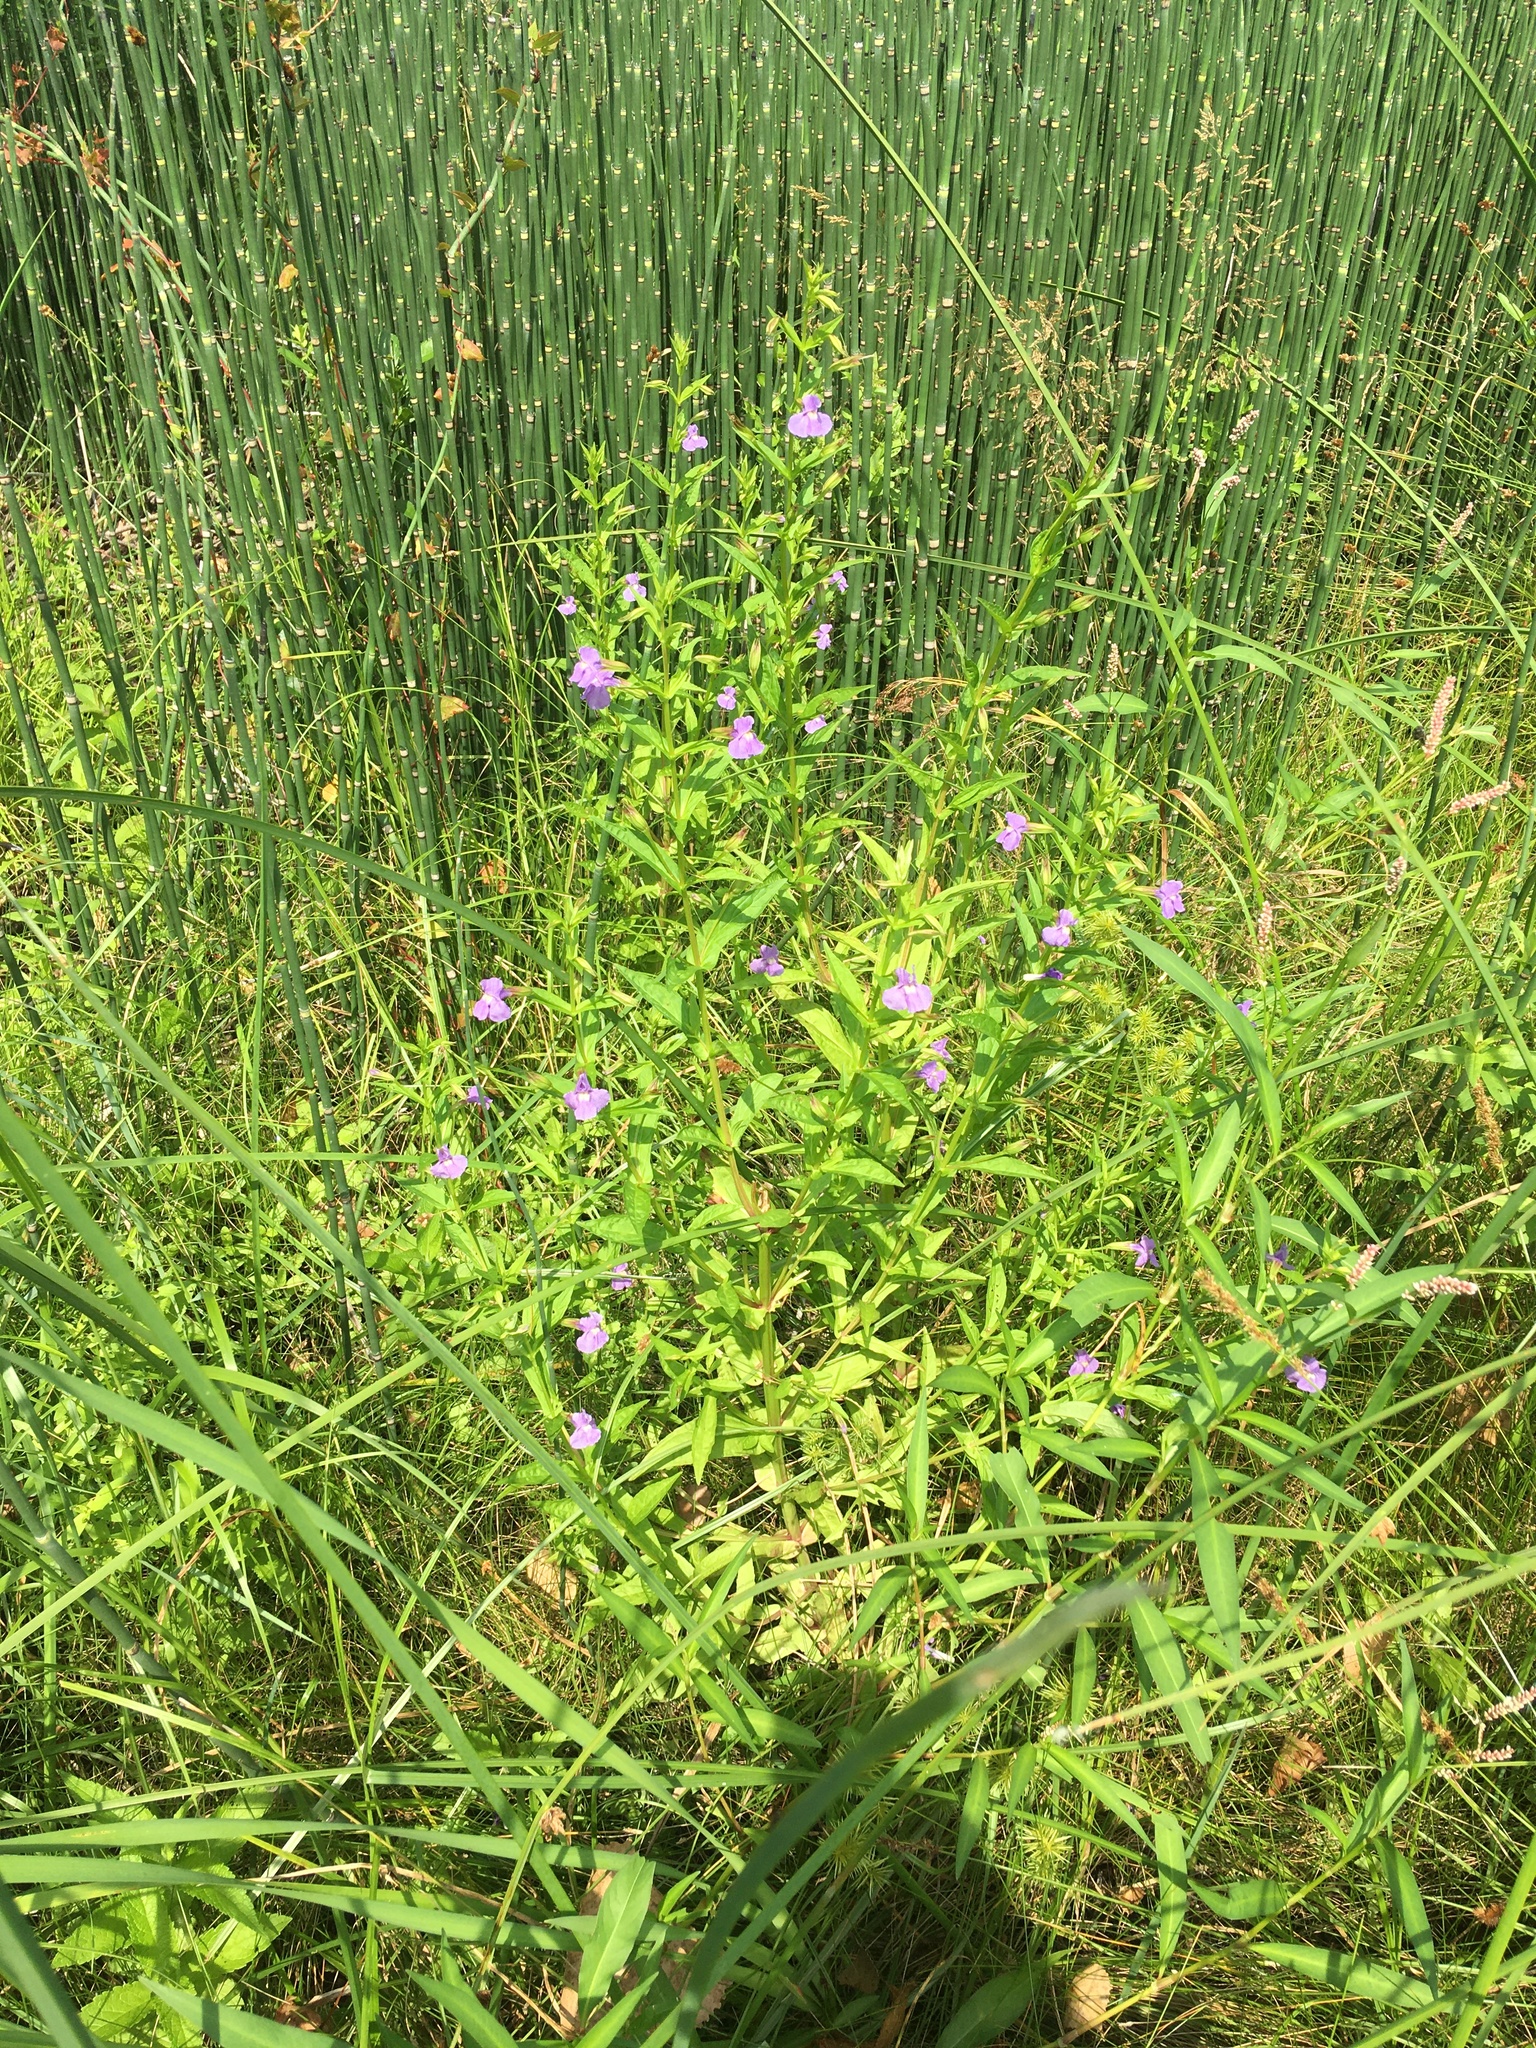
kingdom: Plantae
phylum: Tracheophyta
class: Magnoliopsida
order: Lamiales
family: Phrymaceae
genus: Mimulus
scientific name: Mimulus ringens
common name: Allegheny monkeyflower
